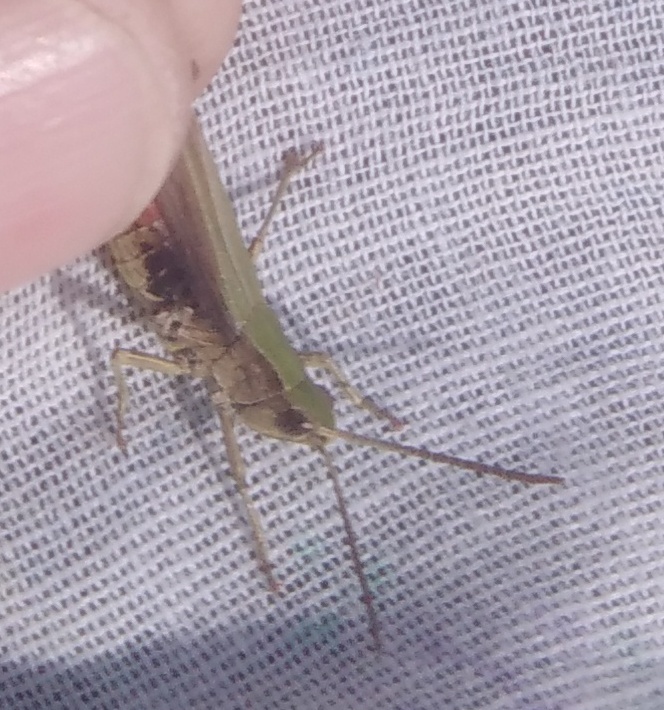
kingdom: Animalia
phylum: Arthropoda
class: Insecta
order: Orthoptera
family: Acrididae
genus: Chorthippus
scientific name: Chorthippus dorsatus
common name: Steppe grasshopper
